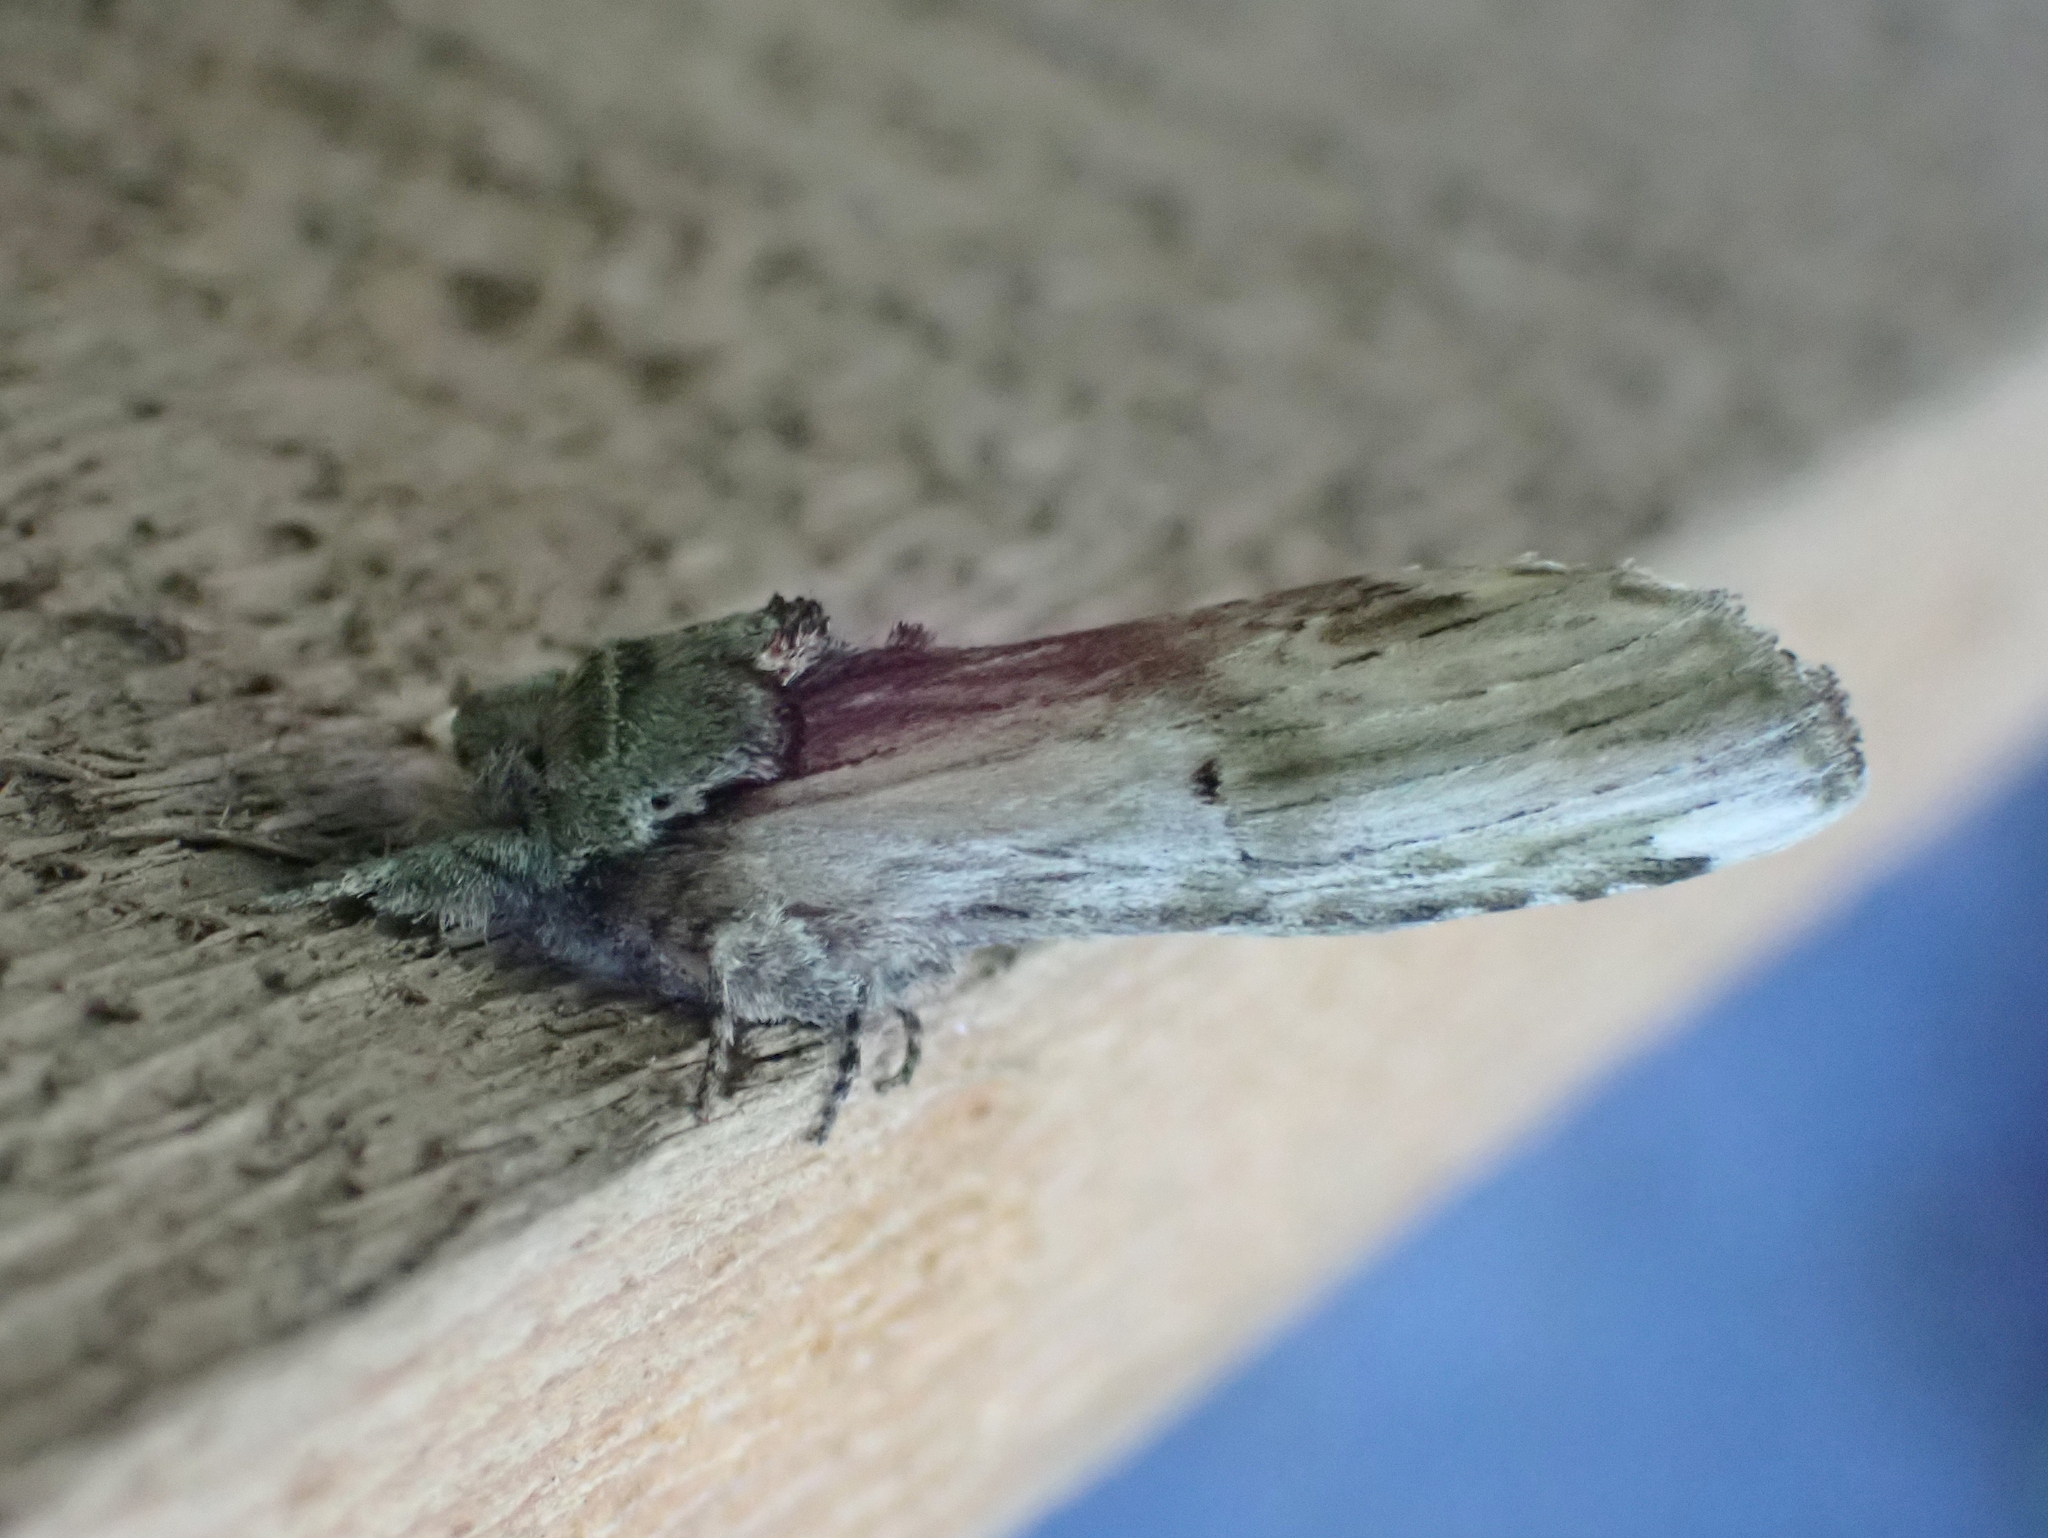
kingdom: Animalia
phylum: Arthropoda
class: Insecta
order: Lepidoptera
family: Notodontidae
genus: Schizura
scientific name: Schizura
